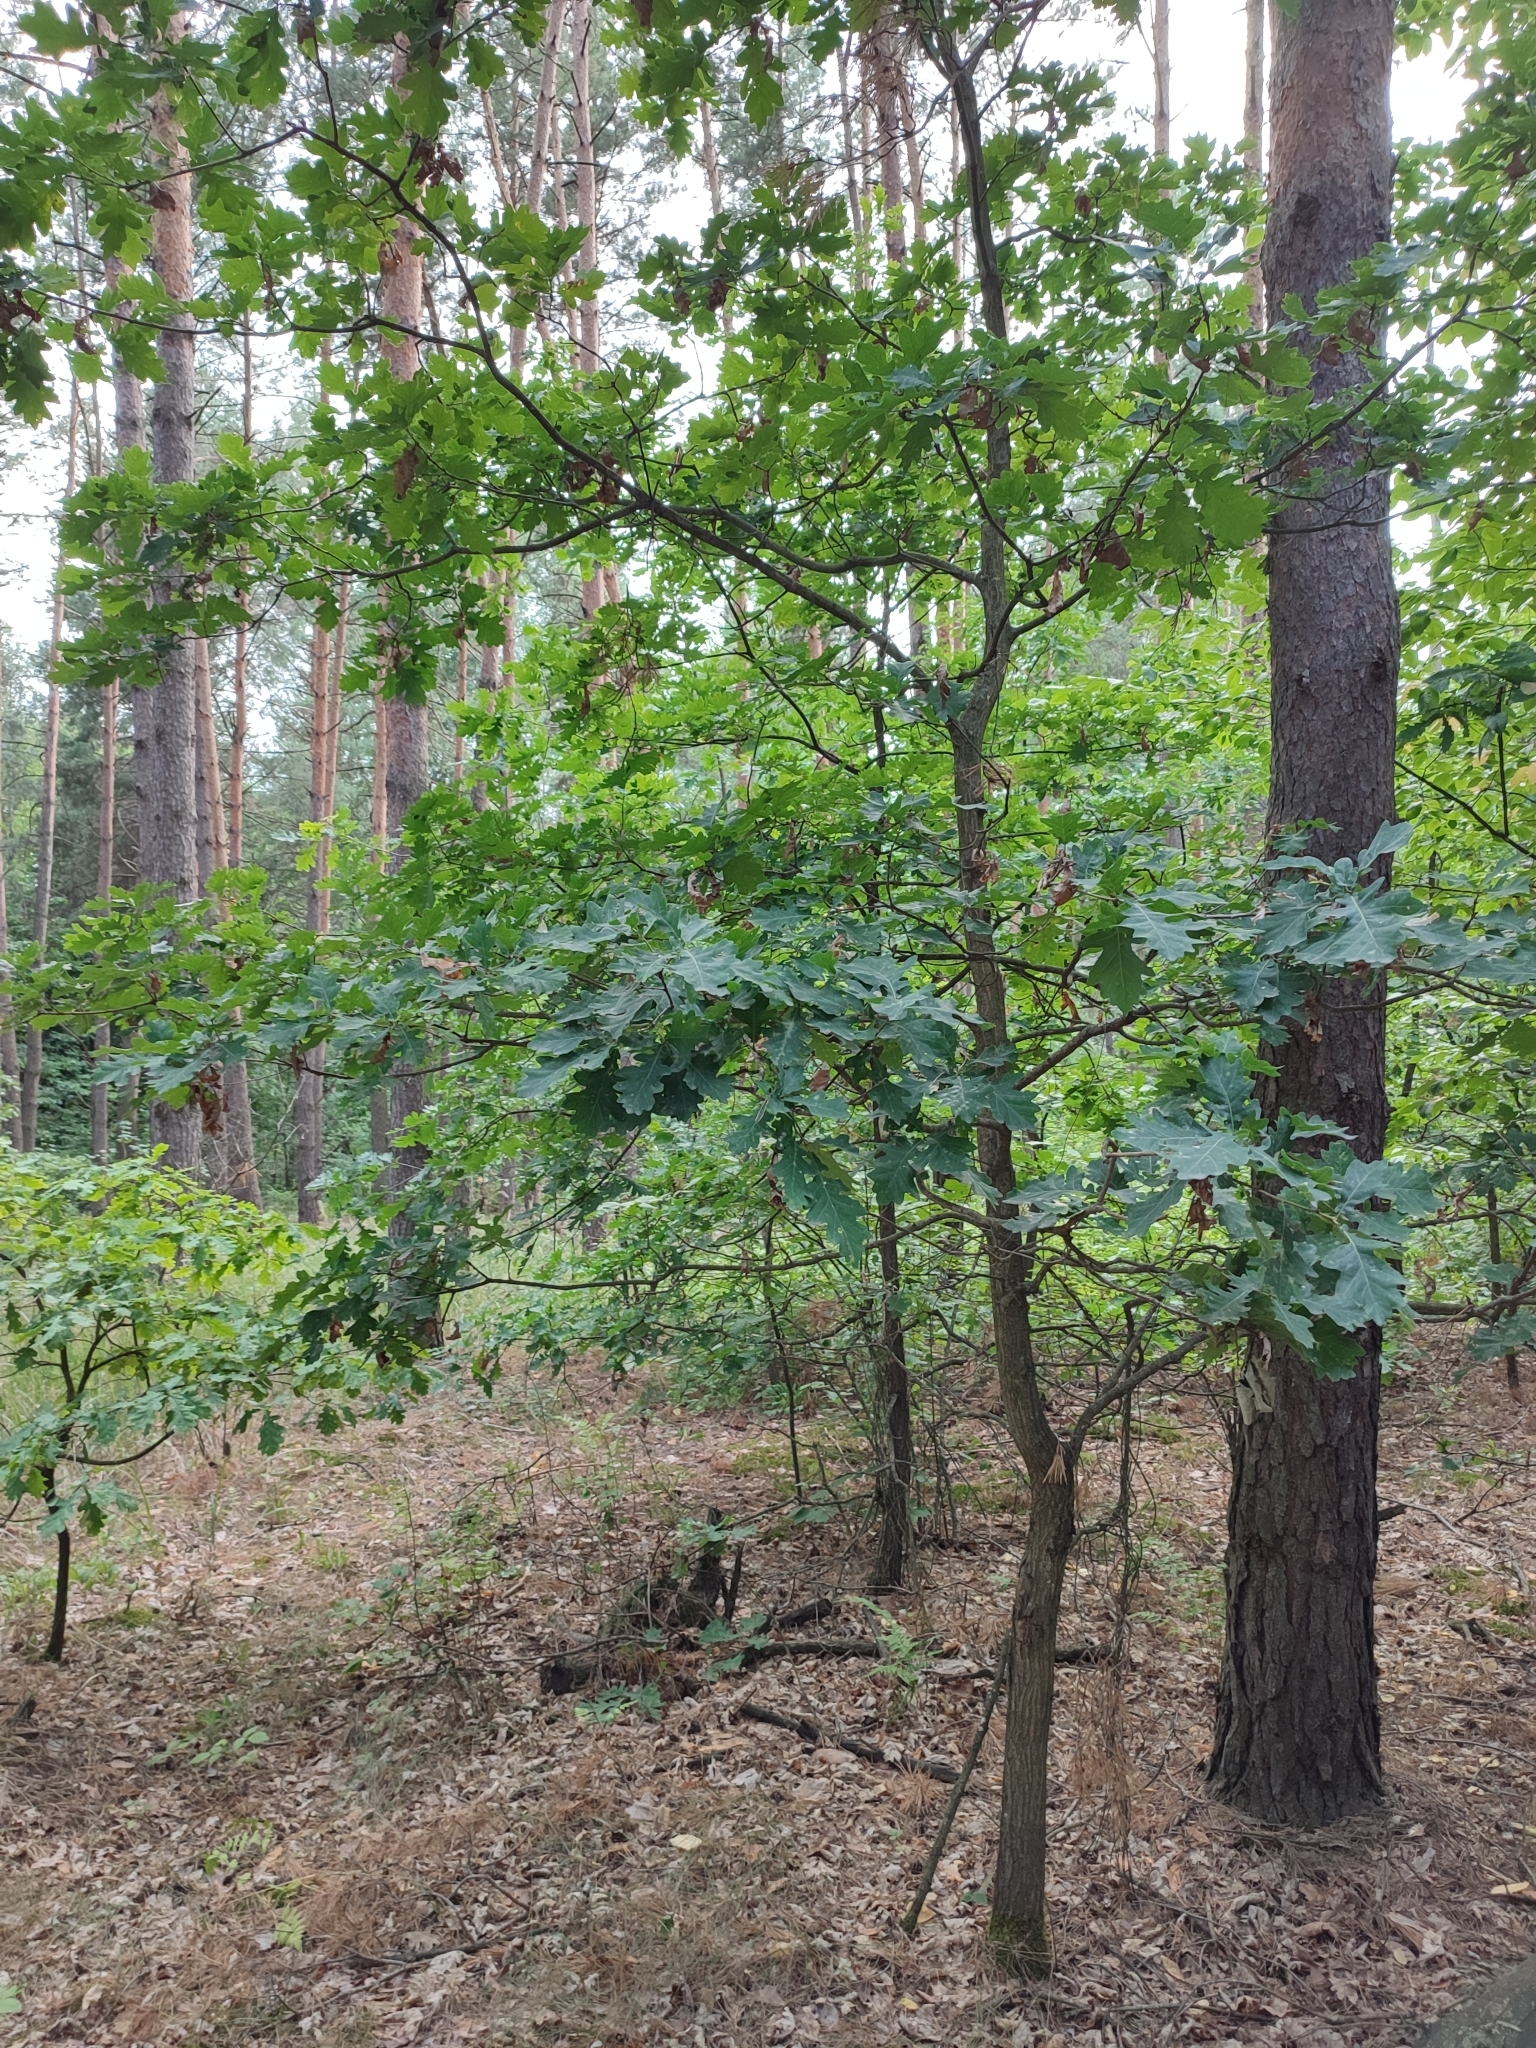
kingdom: Plantae
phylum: Tracheophyta
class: Magnoliopsida
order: Fagales
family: Fagaceae
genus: Quercus
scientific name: Quercus robur
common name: Pedunculate oak
